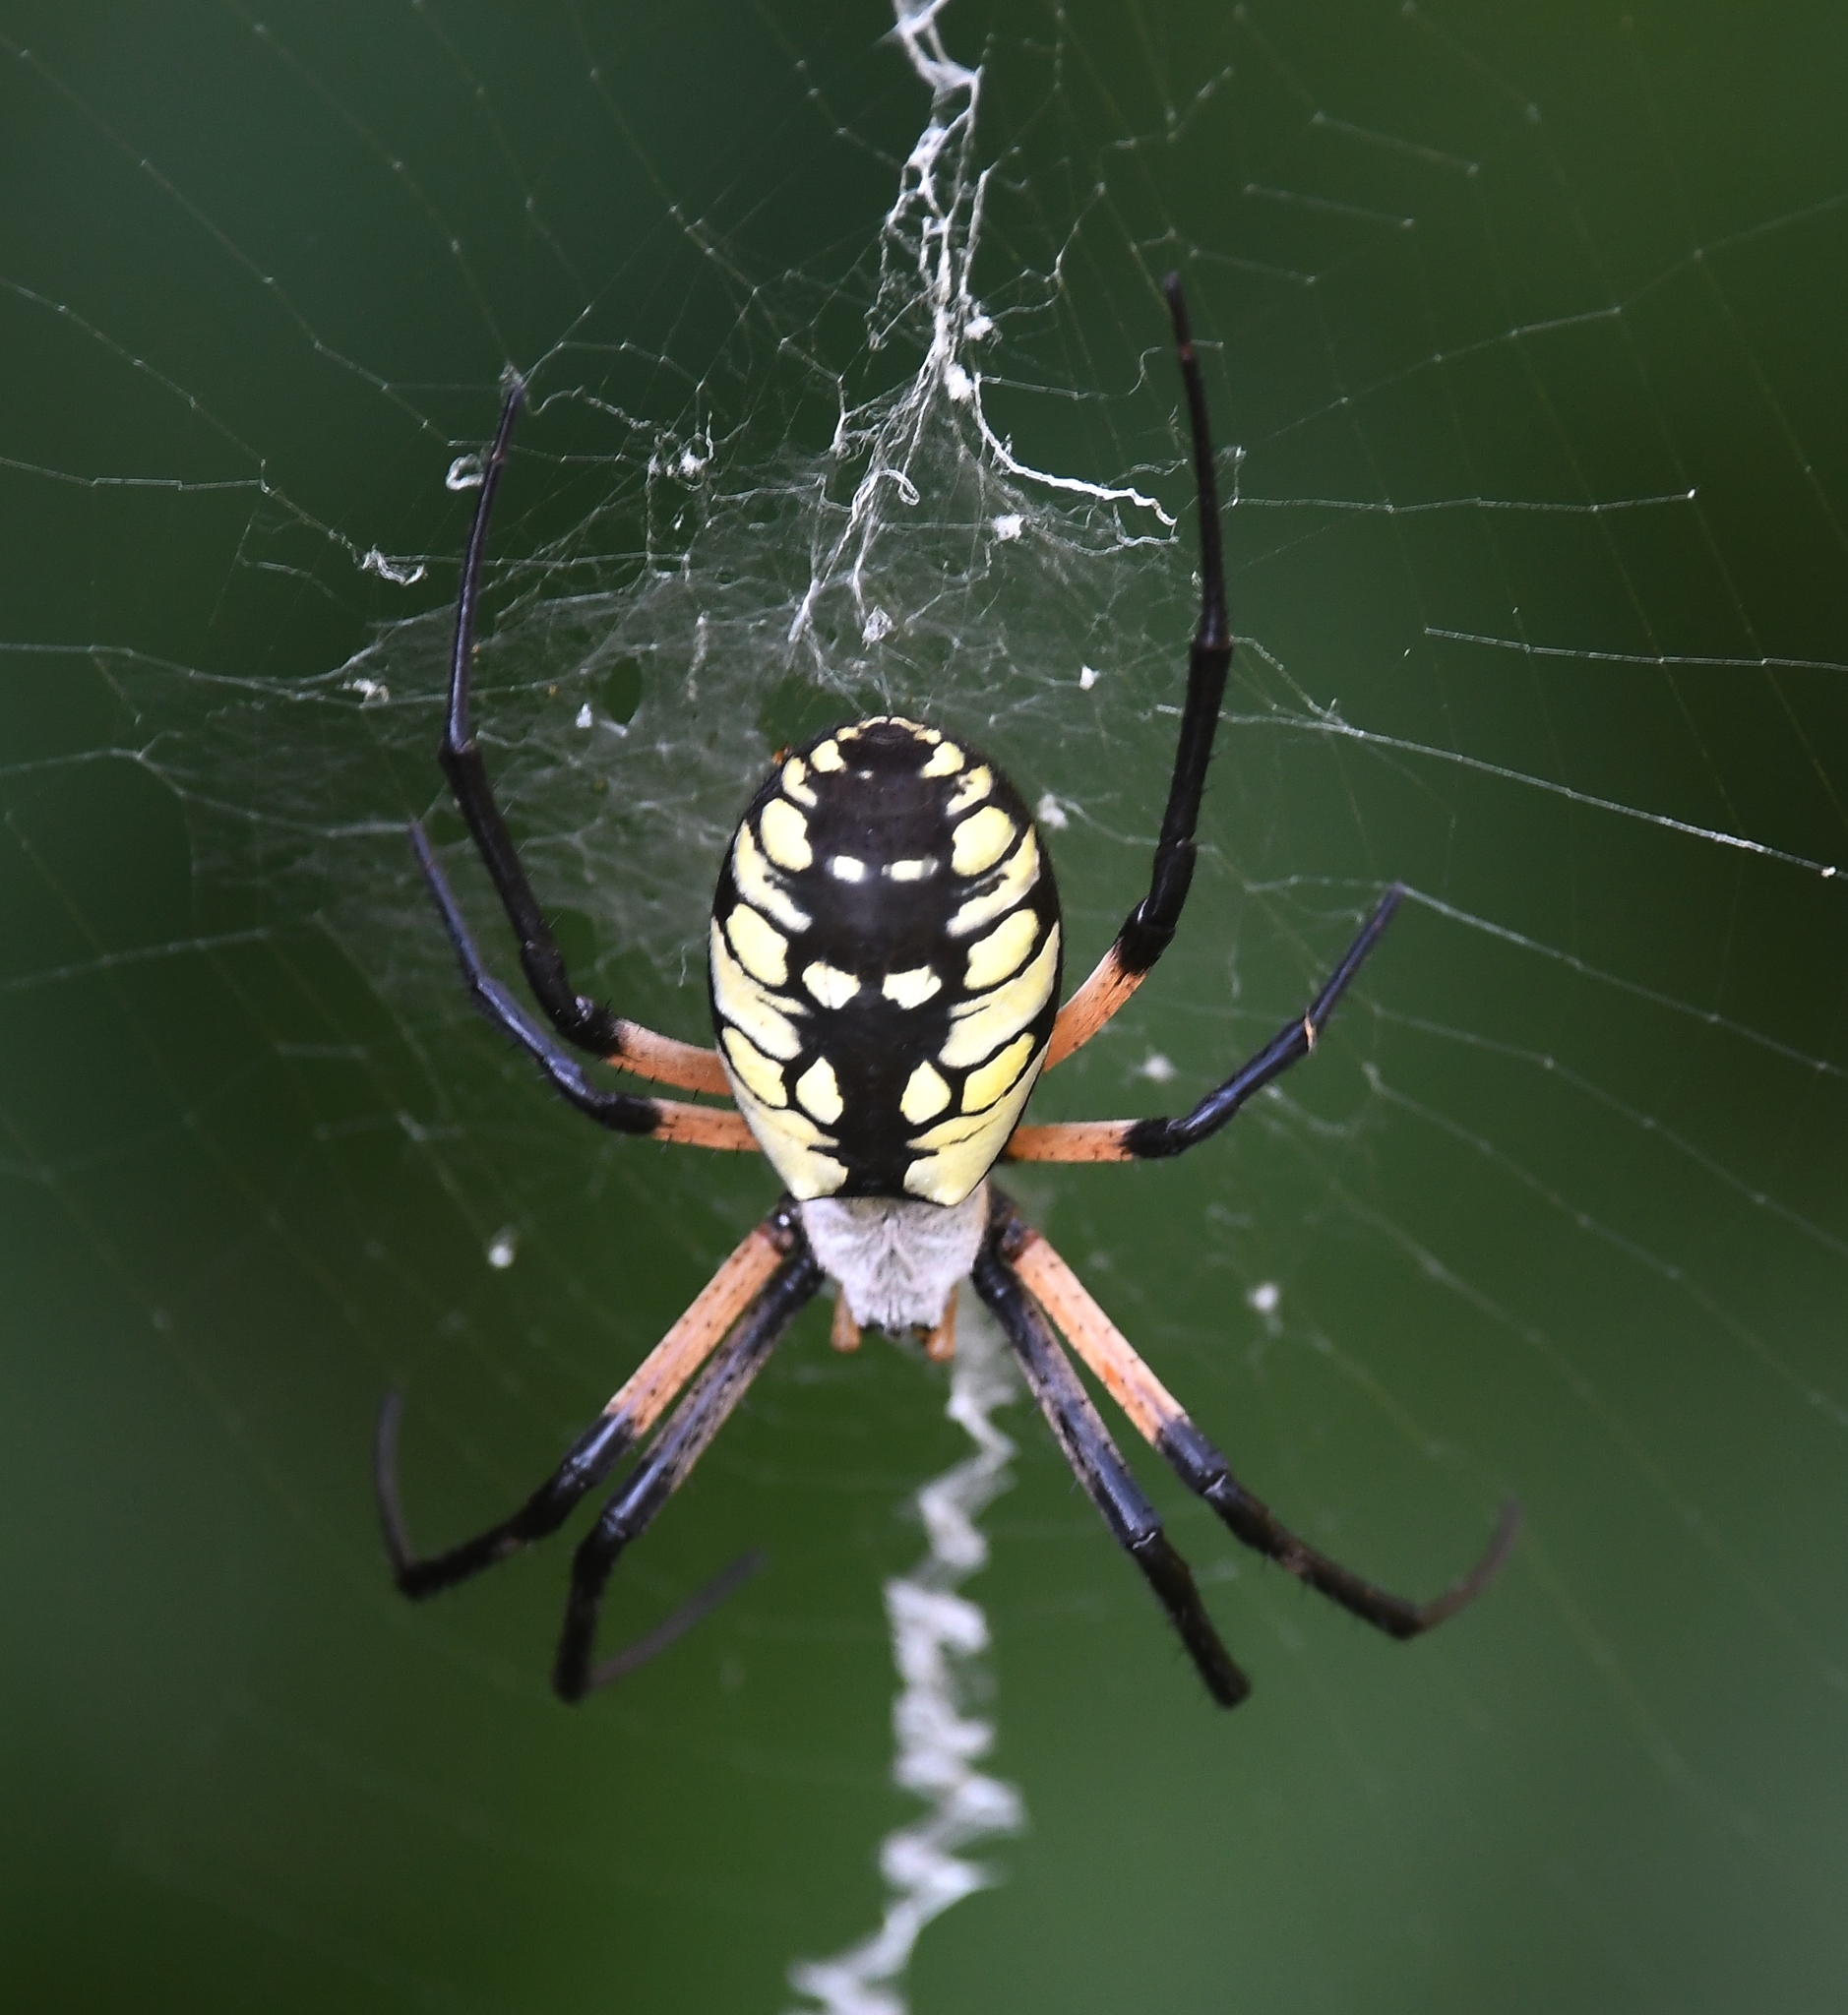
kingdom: Animalia
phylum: Arthropoda
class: Arachnida
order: Araneae
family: Araneidae
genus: Argiope
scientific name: Argiope aurantia
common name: Orb weavers
